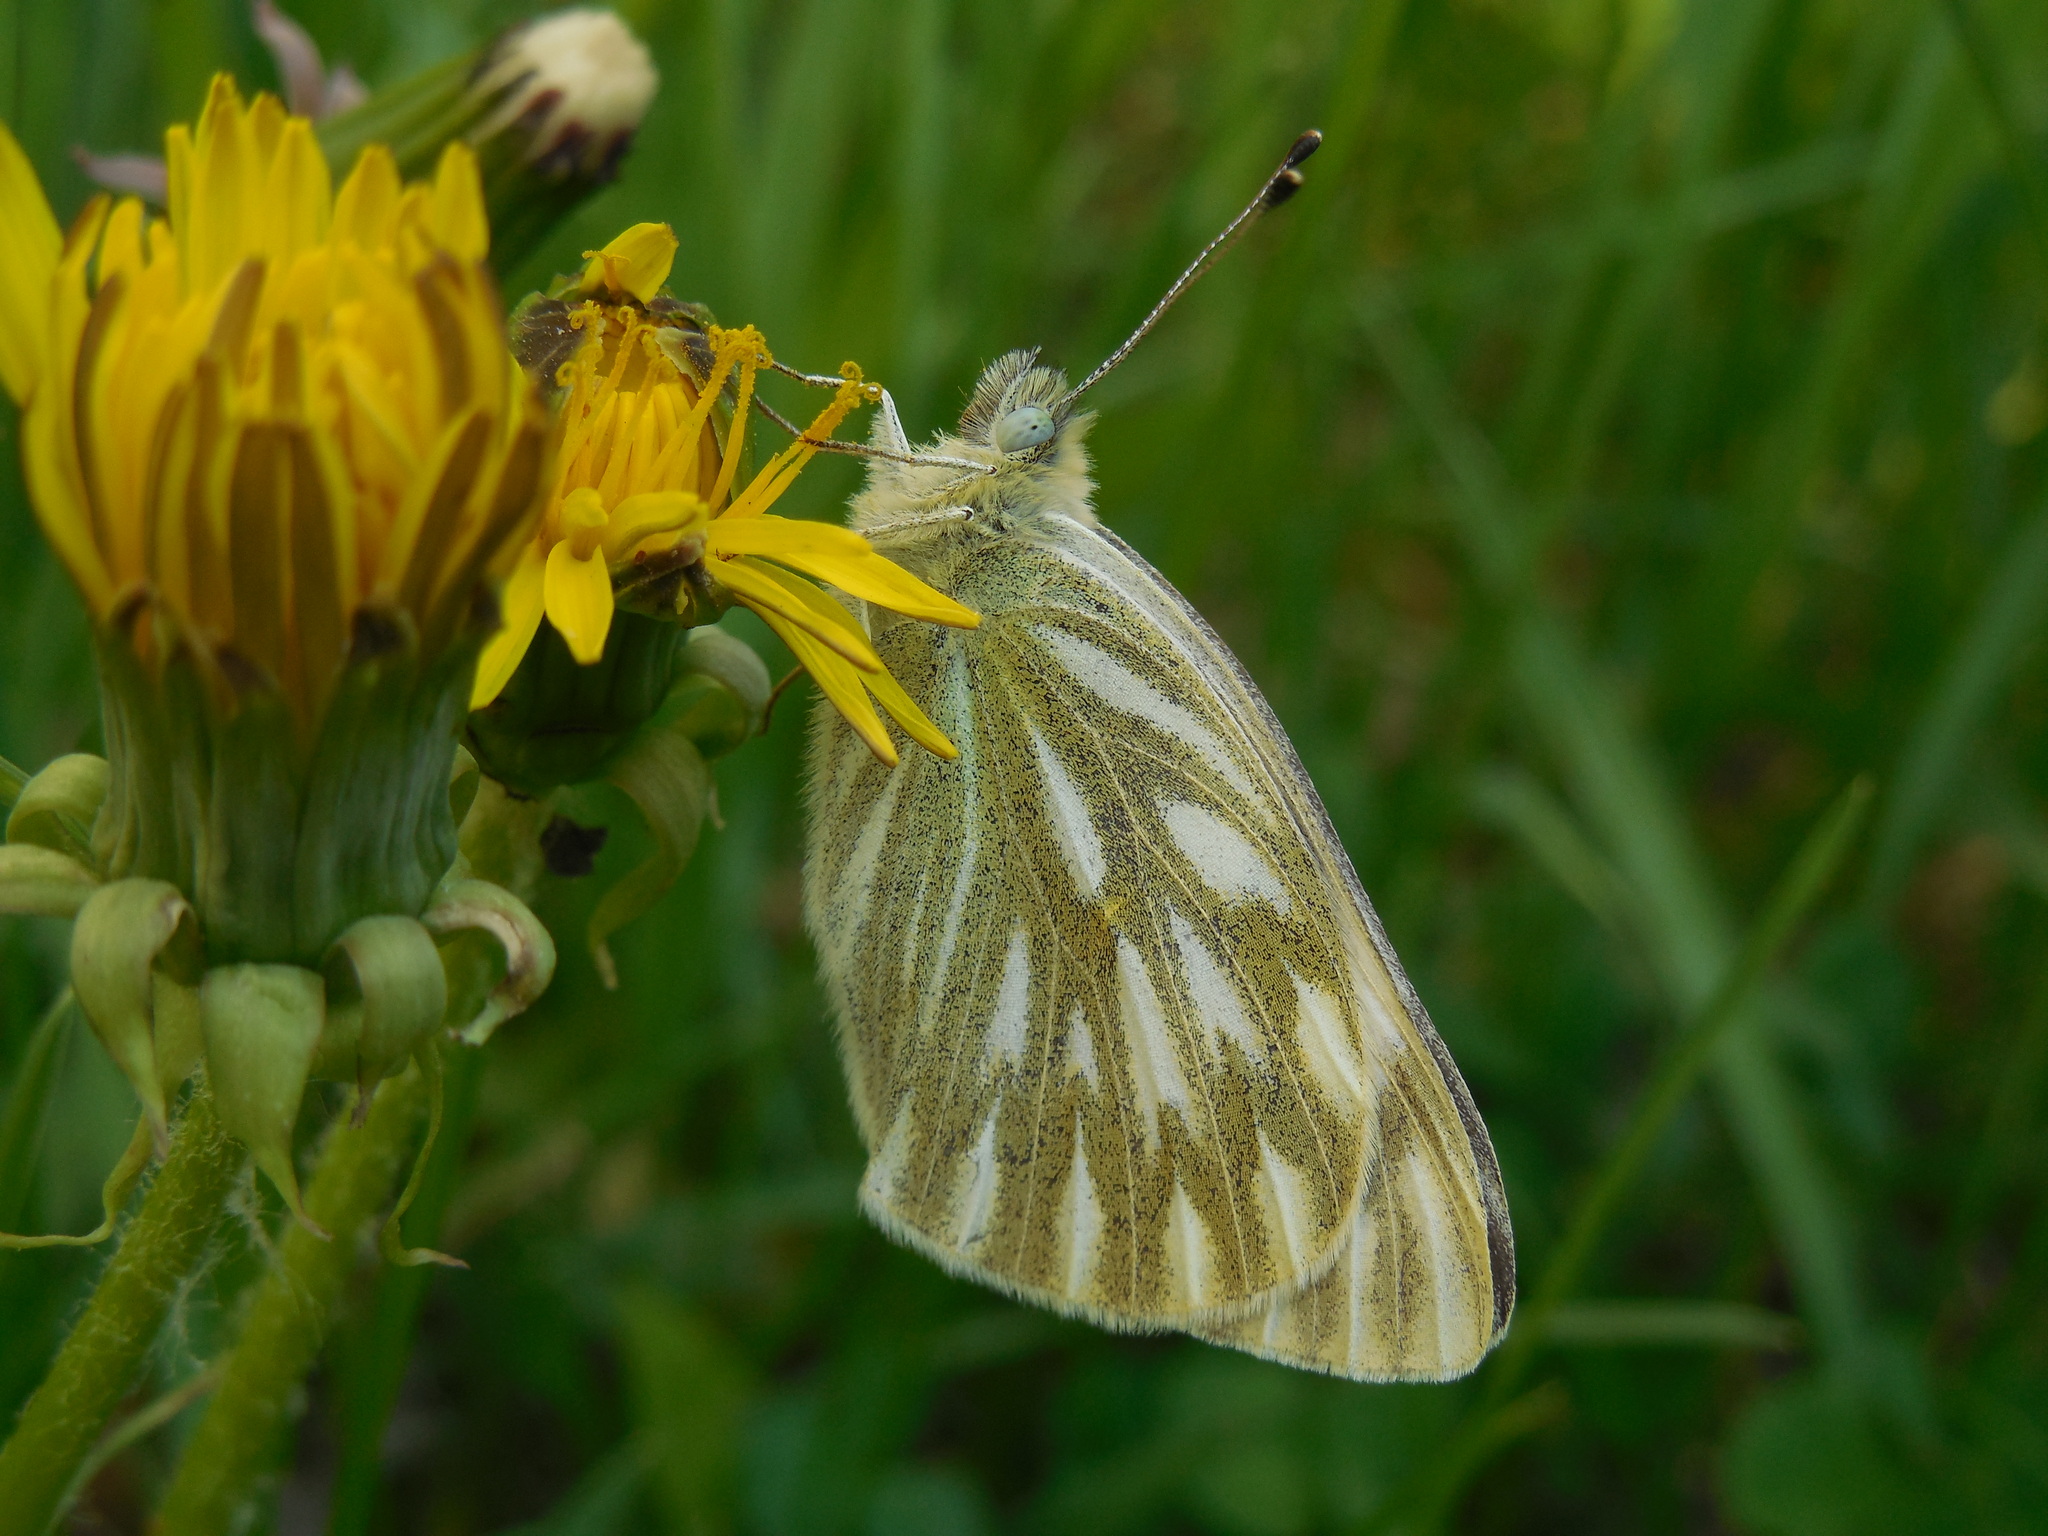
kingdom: Animalia
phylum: Arthropoda
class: Insecta
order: Lepidoptera
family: Pieridae
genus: Pontia
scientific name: Pontia occidentalis
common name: Western white
